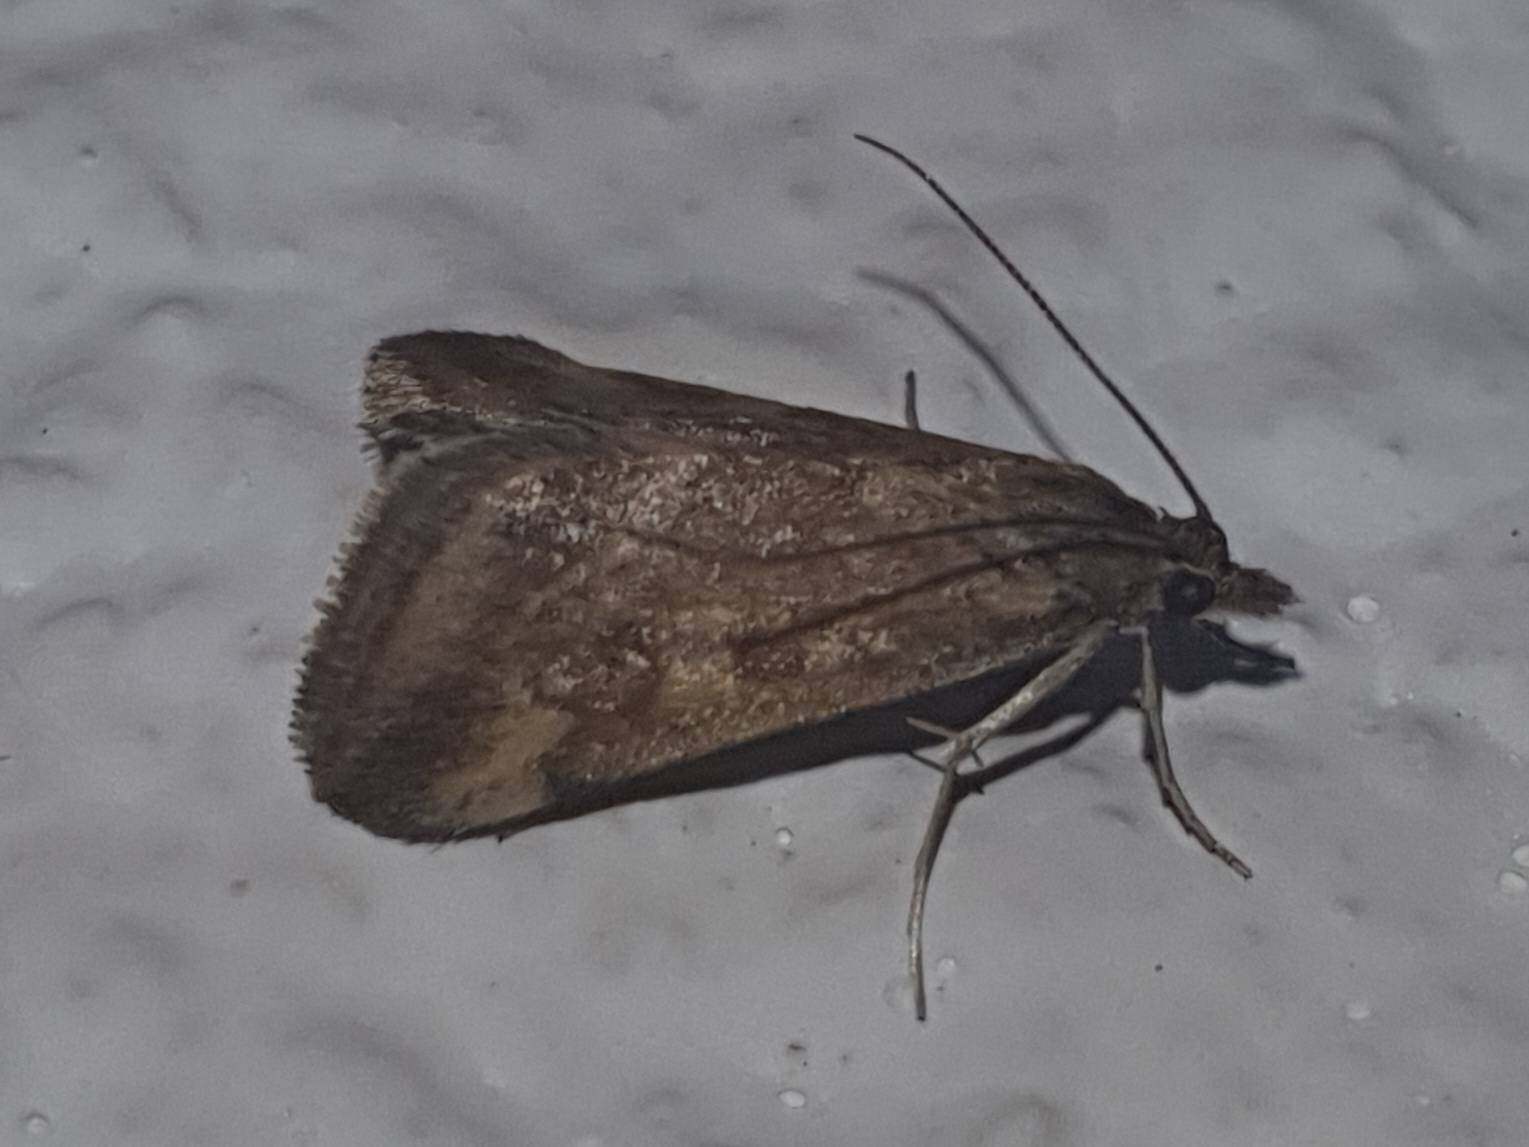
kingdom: Animalia
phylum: Arthropoda
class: Insecta
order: Lepidoptera
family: Crambidae
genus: Pyrausta
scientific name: Pyrausta despicata
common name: Straw-barred pearl
